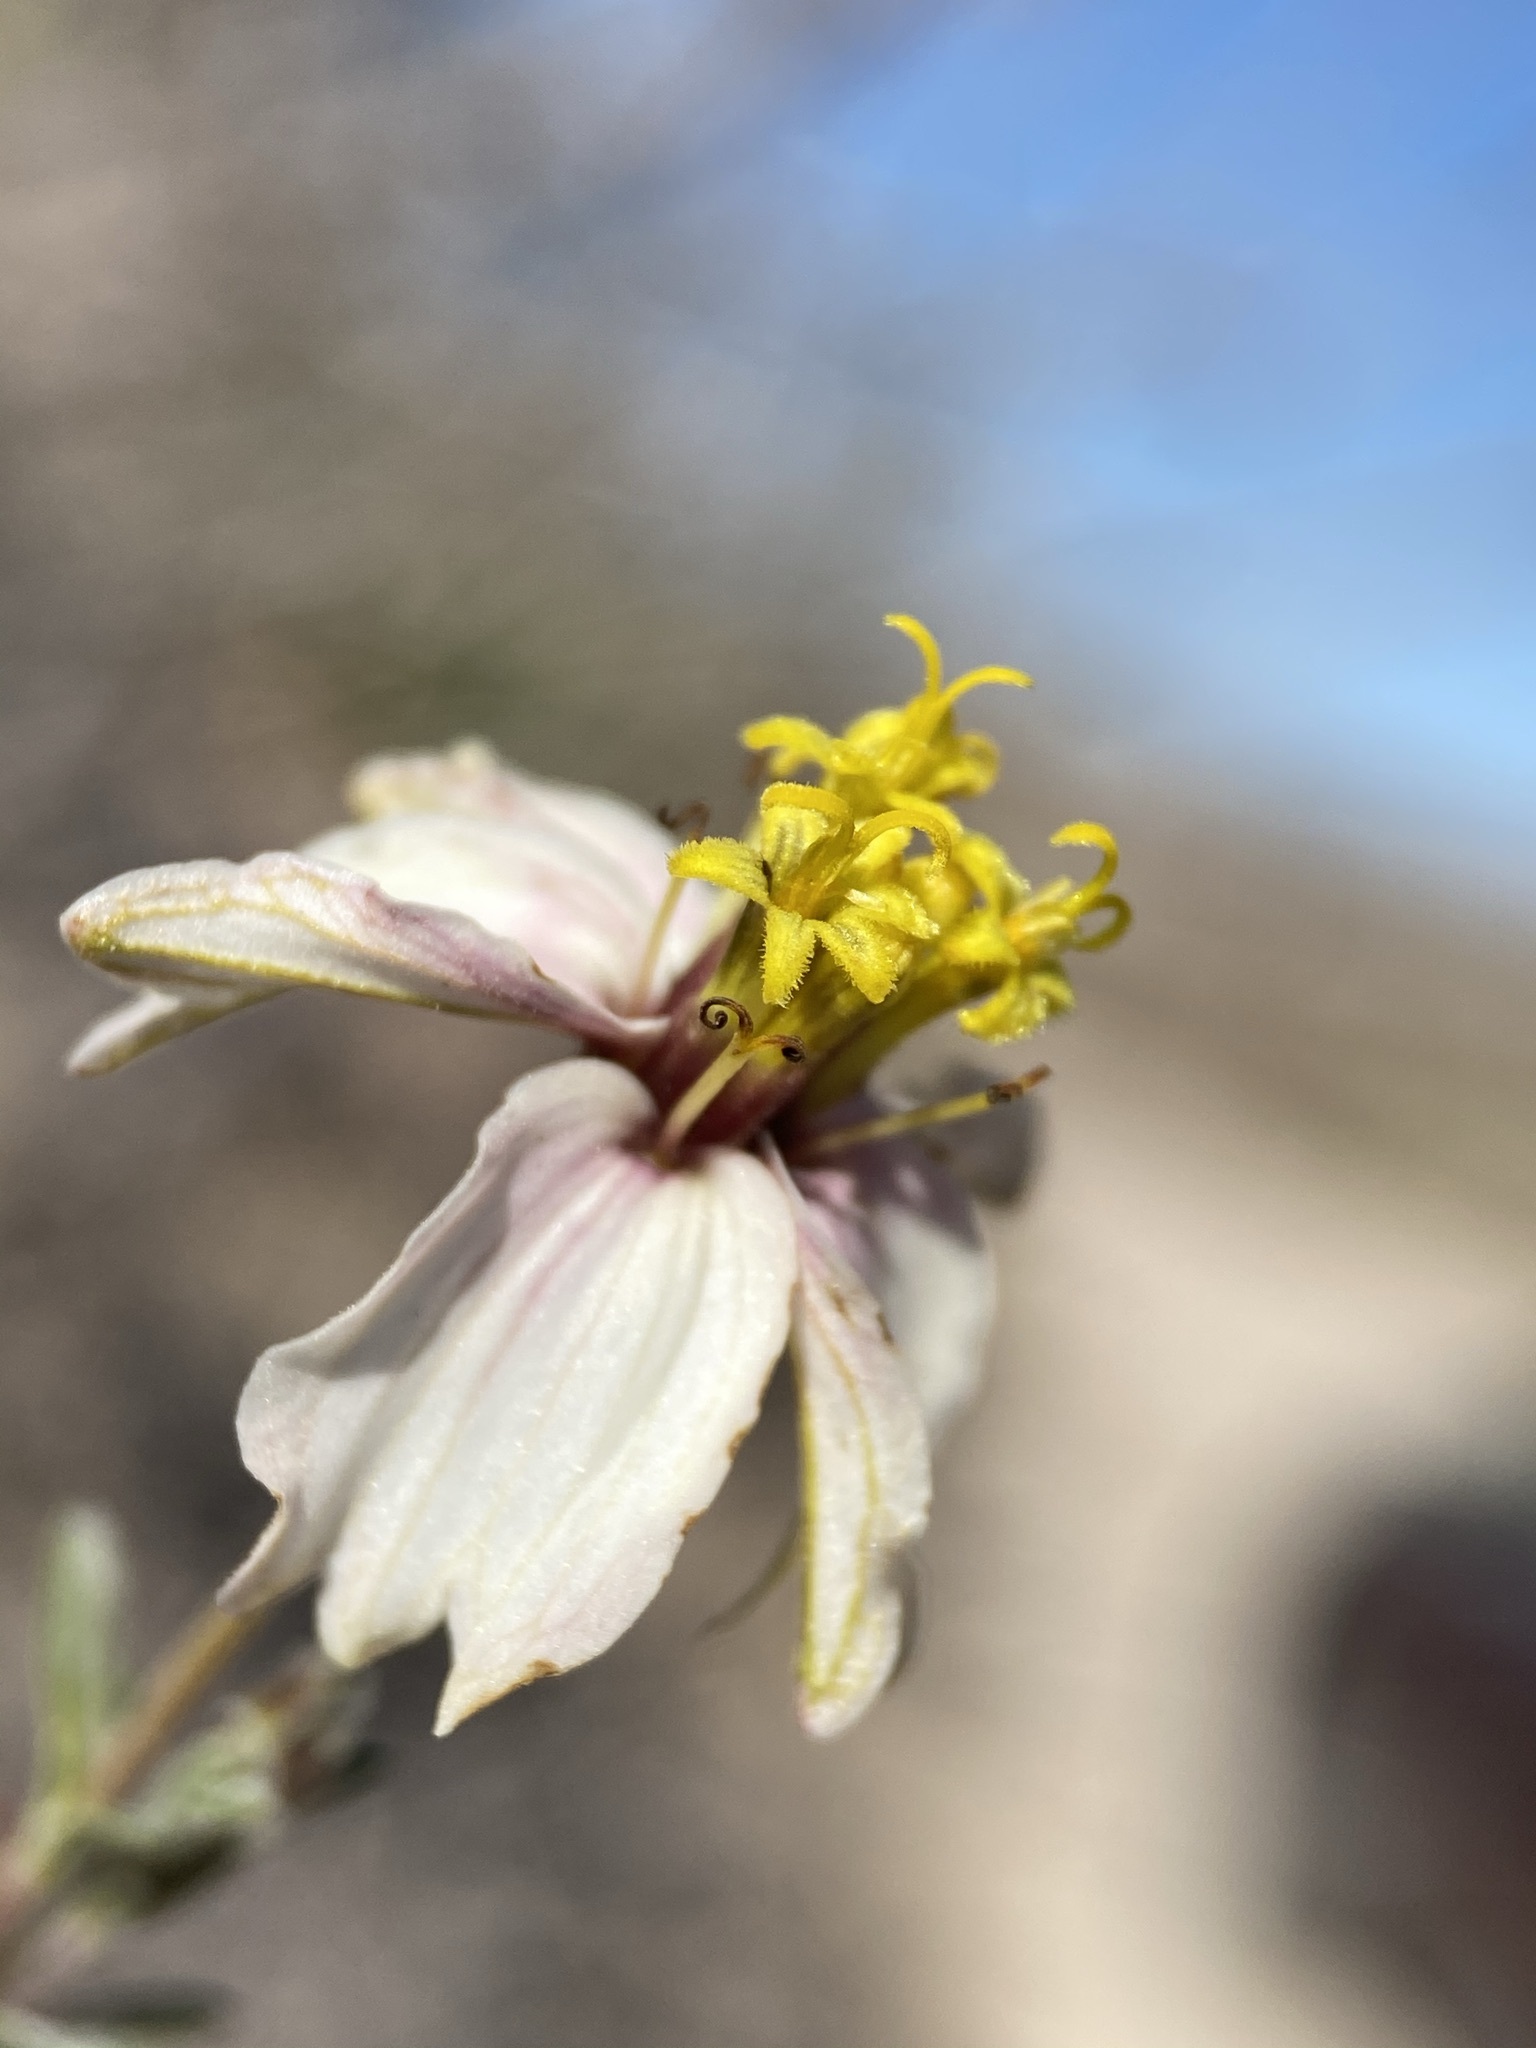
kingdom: Plantae
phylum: Tracheophyta
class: Magnoliopsida
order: Asterales
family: Asteraceae
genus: Zinnia
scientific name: Zinnia acerosa
